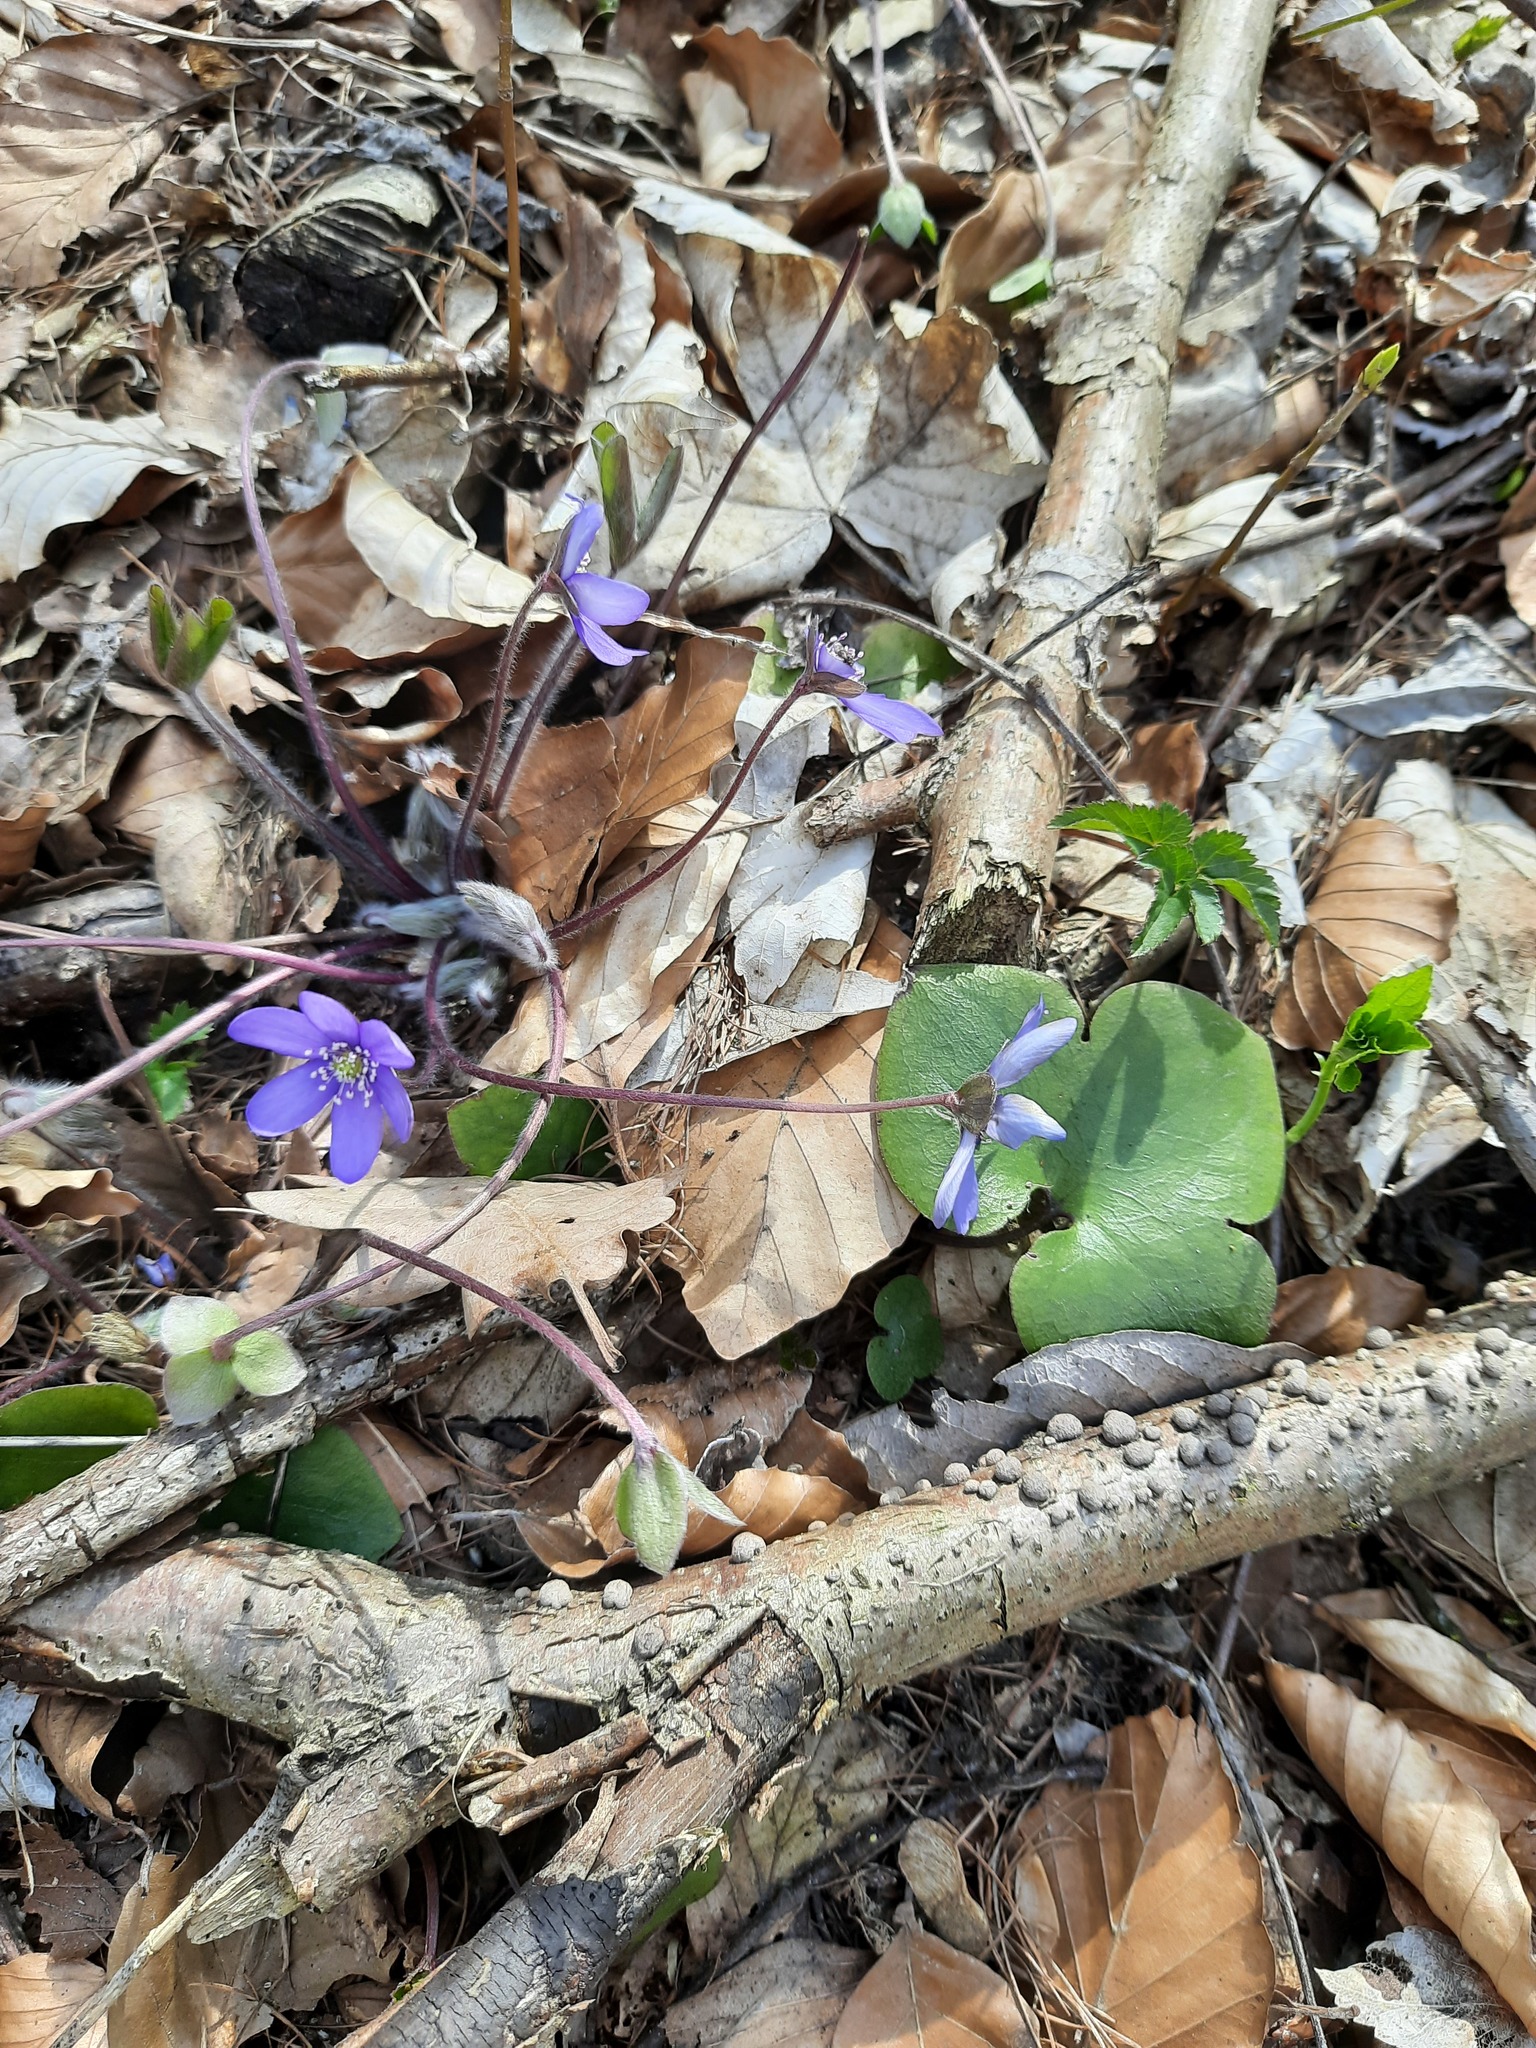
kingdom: Plantae
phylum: Tracheophyta
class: Magnoliopsida
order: Ranunculales
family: Ranunculaceae
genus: Hepatica
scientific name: Hepatica nobilis
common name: Liverleaf
